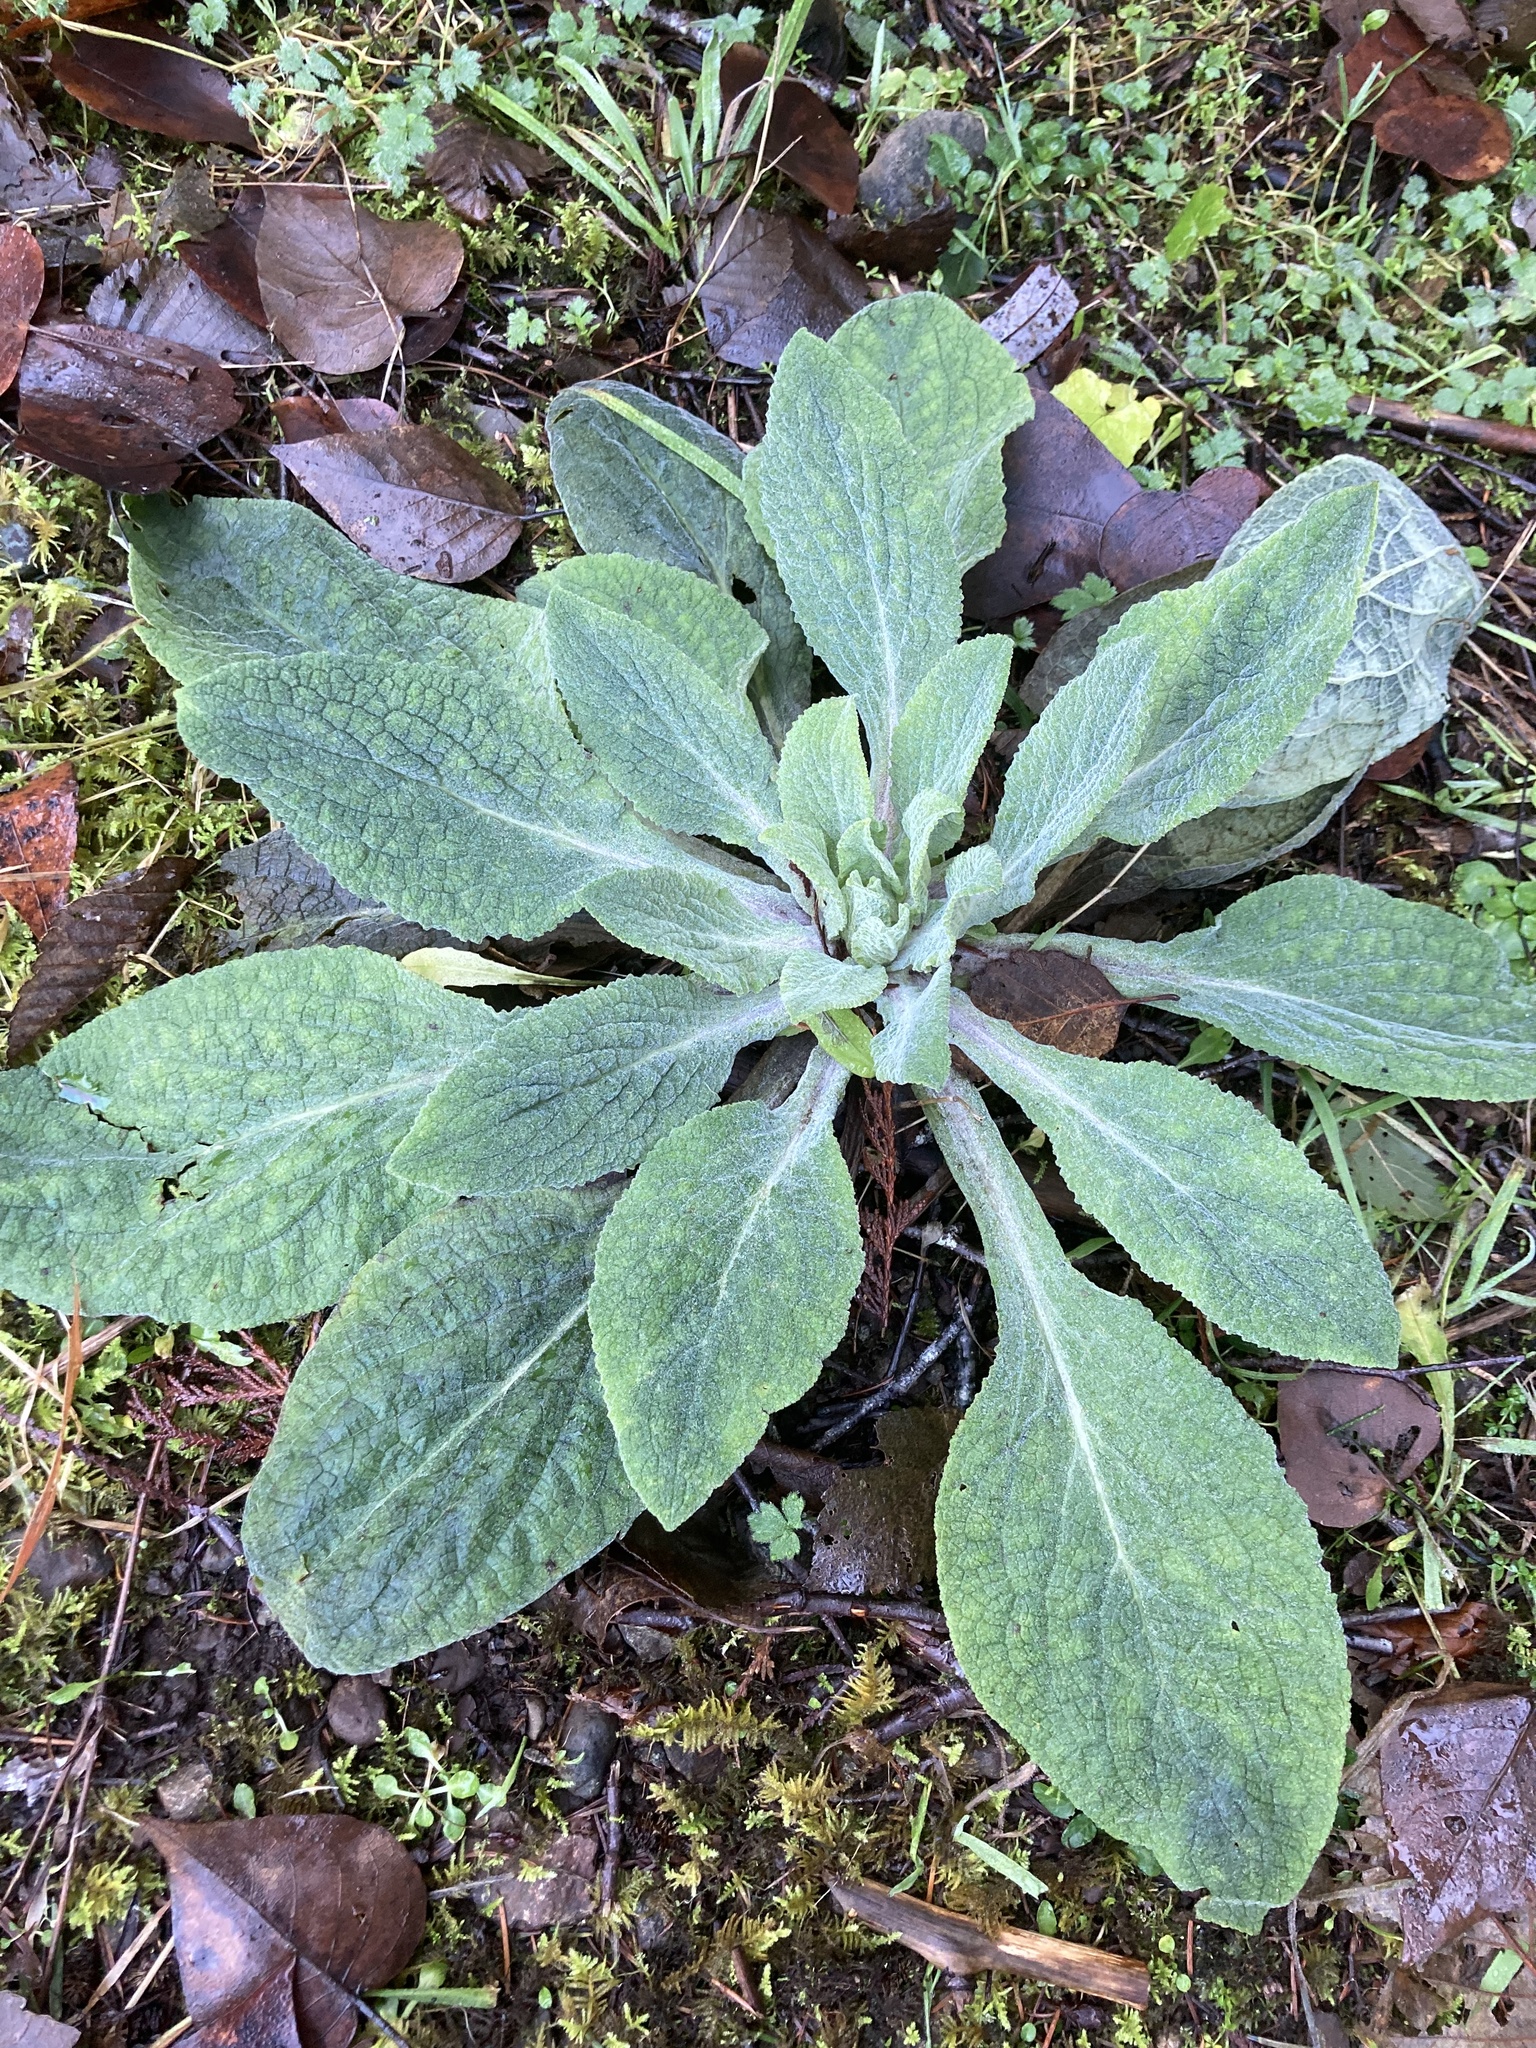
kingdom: Plantae
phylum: Tracheophyta
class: Magnoliopsida
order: Lamiales
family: Plantaginaceae
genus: Digitalis
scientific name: Digitalis purpurea
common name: Foxglove
